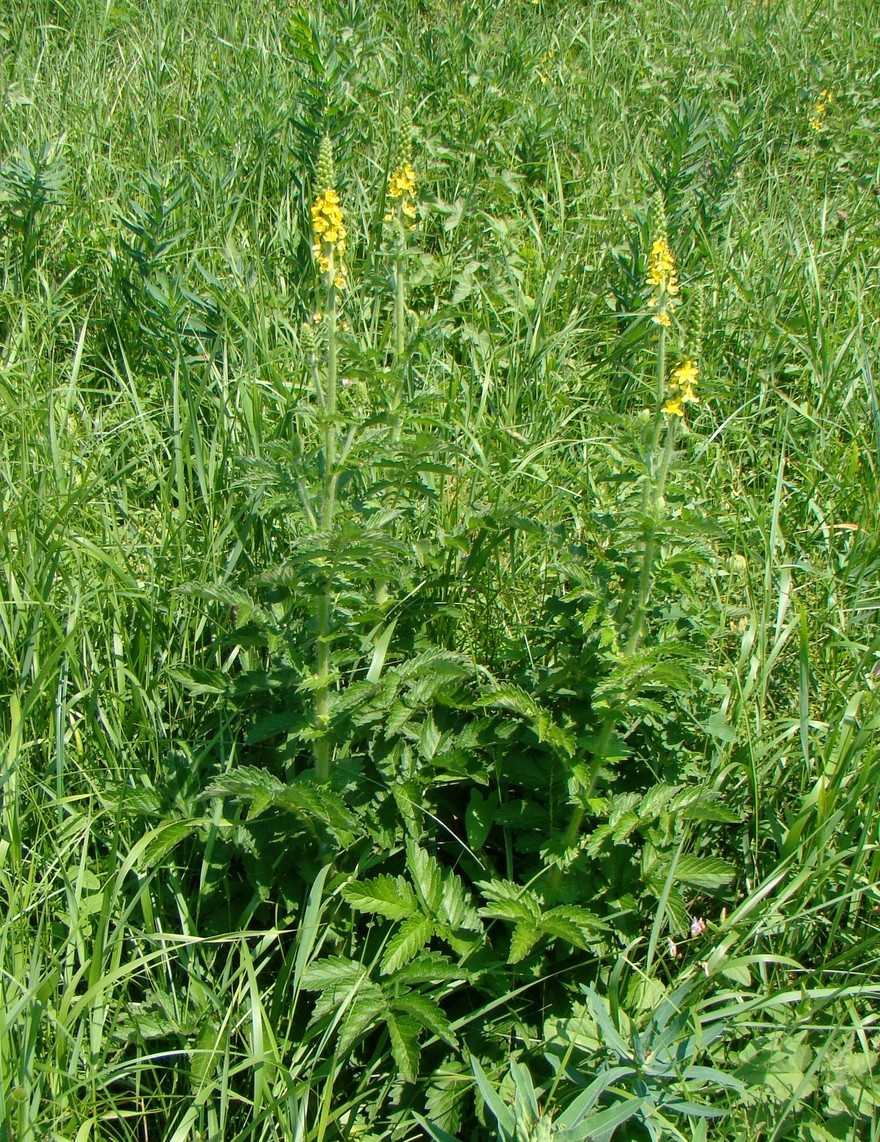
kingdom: Plantae
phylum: Tracheophyta
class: Magnoliopsida
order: Rosales
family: Rosaceae
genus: Agrimonia
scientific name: Agrimonia eupatoria
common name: Agrimony
